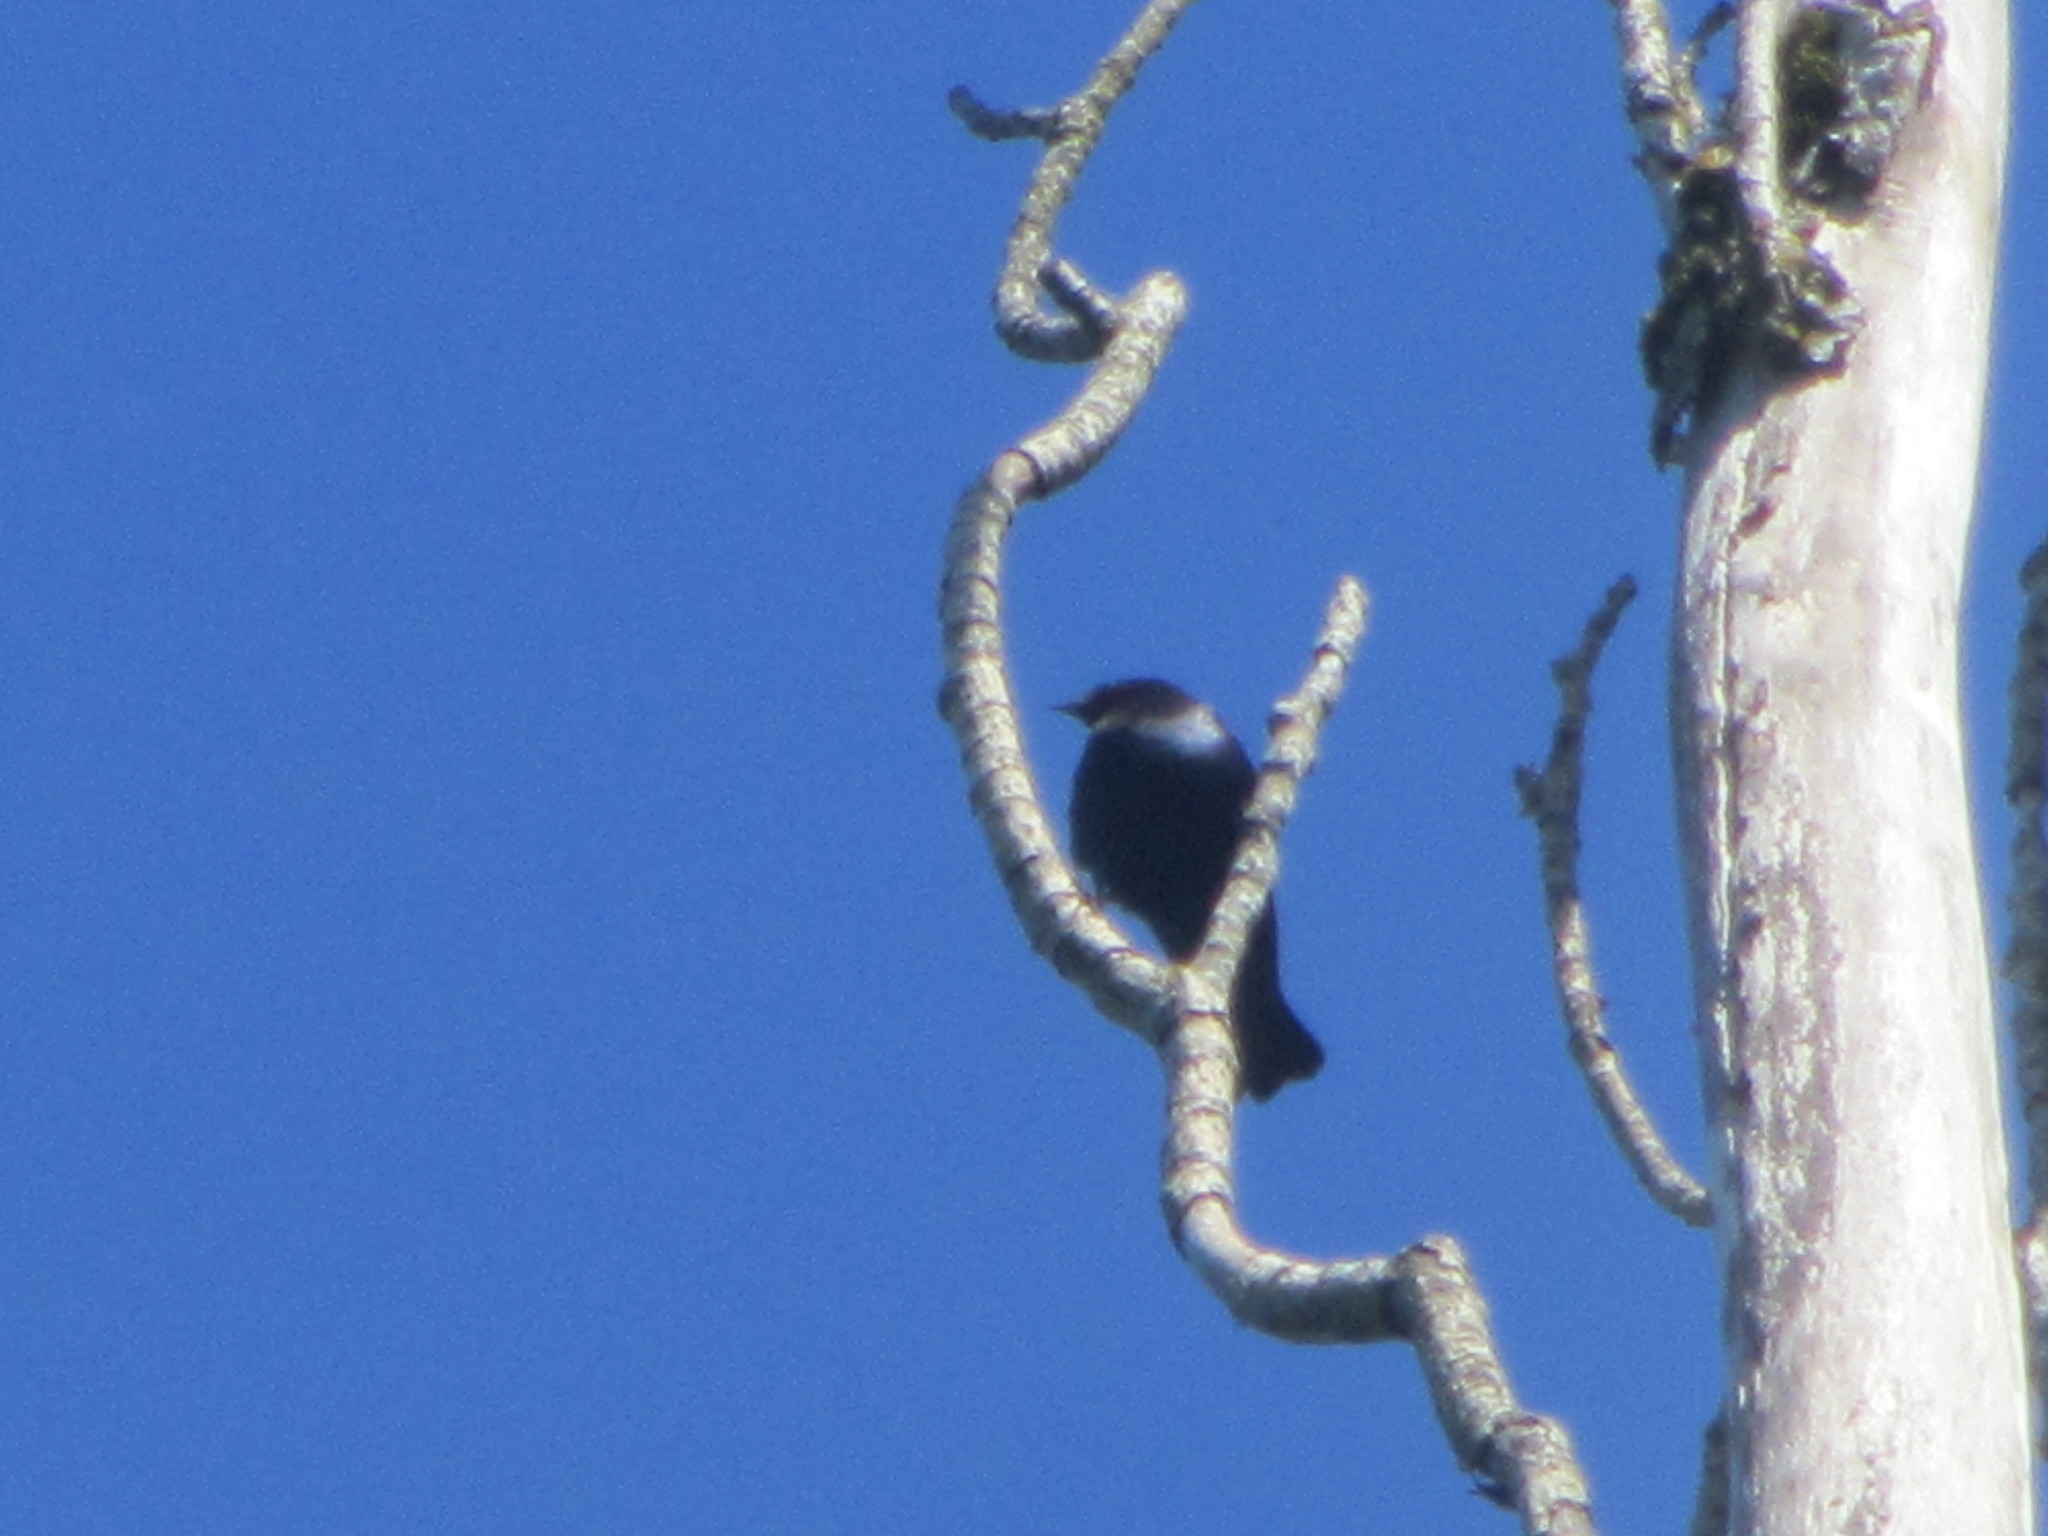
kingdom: Animalia
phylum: Chordata
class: Aves
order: Passeriformes
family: Icteridae
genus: Molothrus
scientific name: Molothrus ater
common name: Brown-headed cowbird
